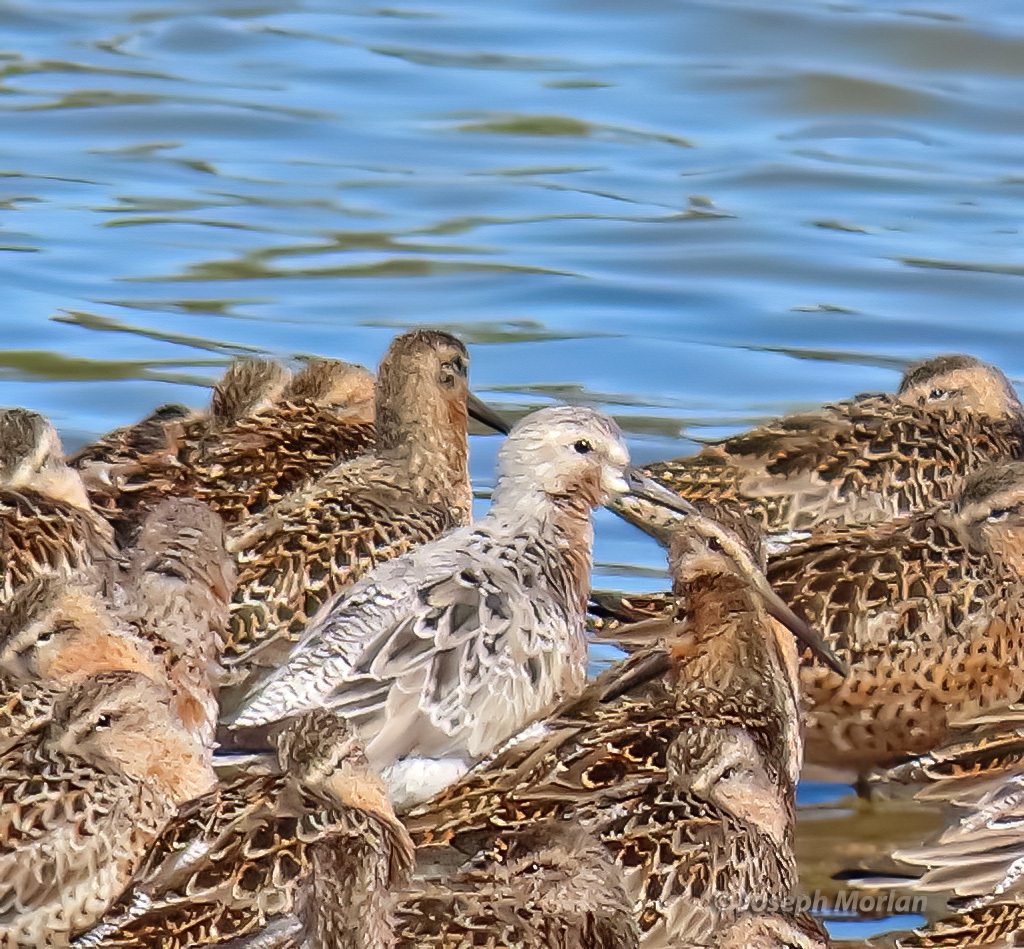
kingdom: Animalia
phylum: Chordata
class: Aves
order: Charadriiformes
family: Scolopacidae
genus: Calidris
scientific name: Calidris canutus
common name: Red knot
